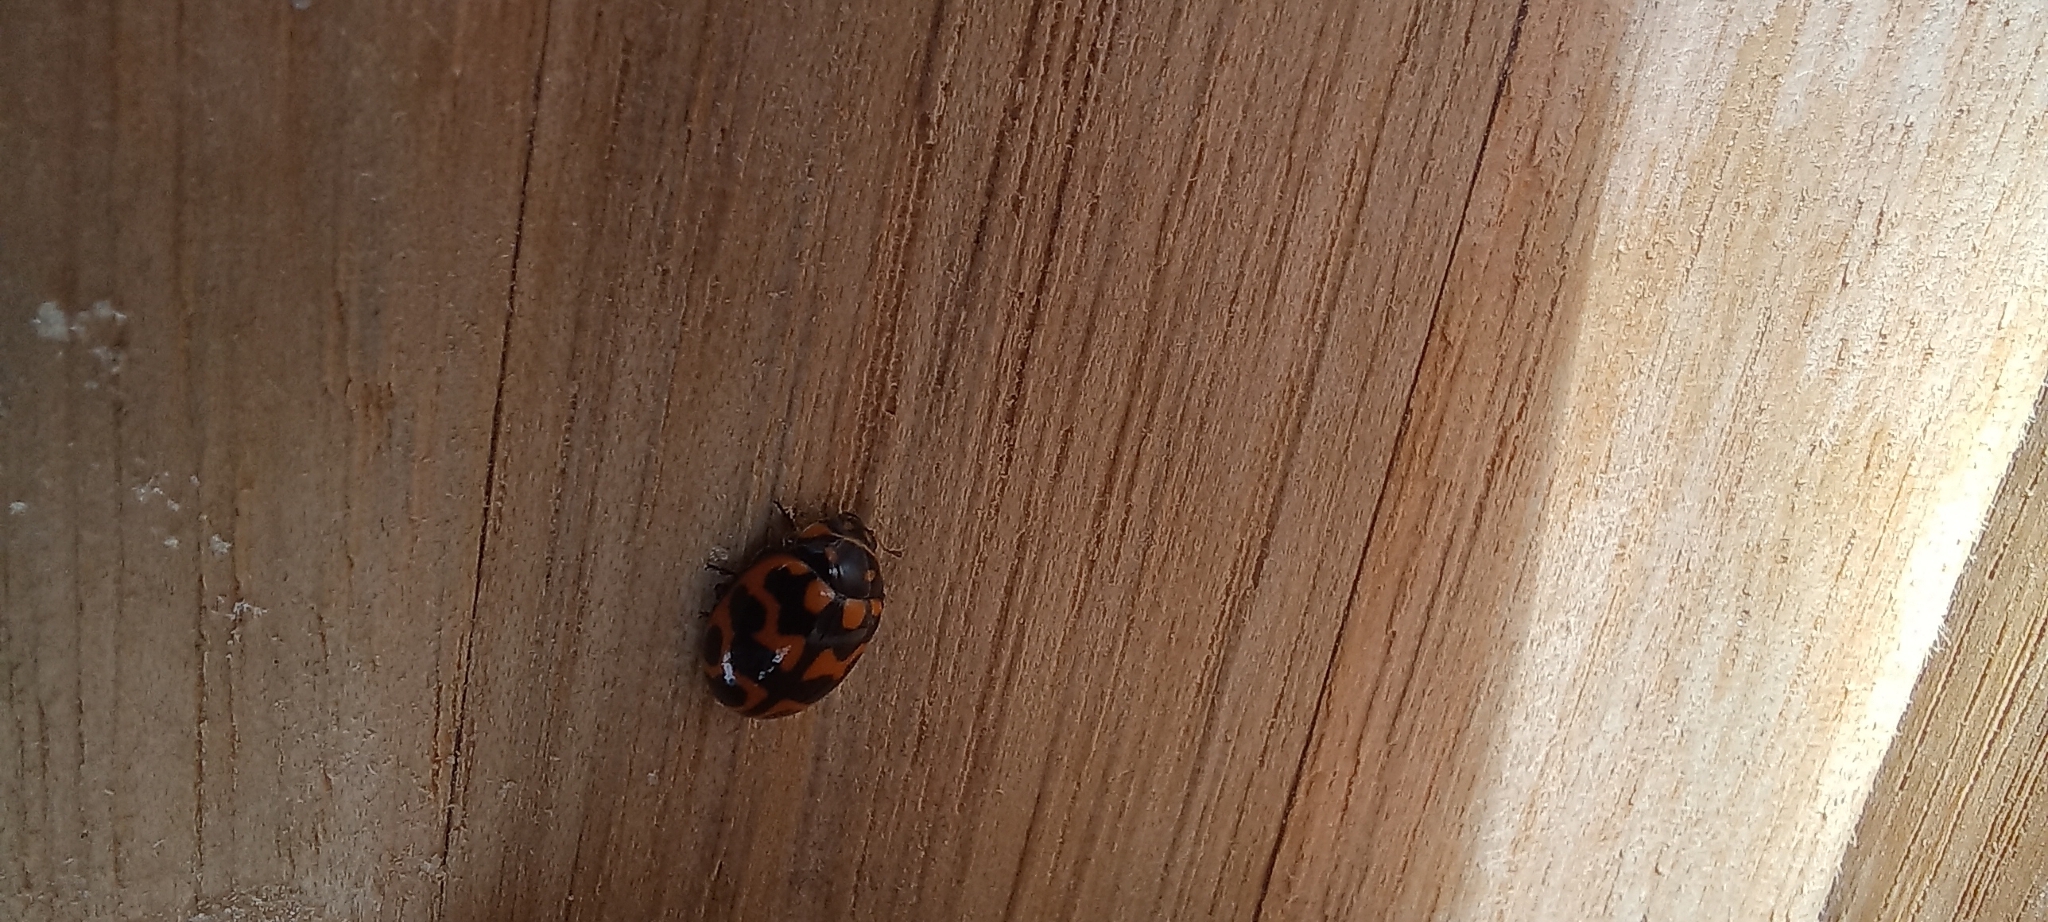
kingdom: Animalia
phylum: Arthropoda
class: Insecta
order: Coleoptera
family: Coccinellidae
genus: Lioadalia
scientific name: Lioadalia flavomaculata
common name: Ladybird beetle
